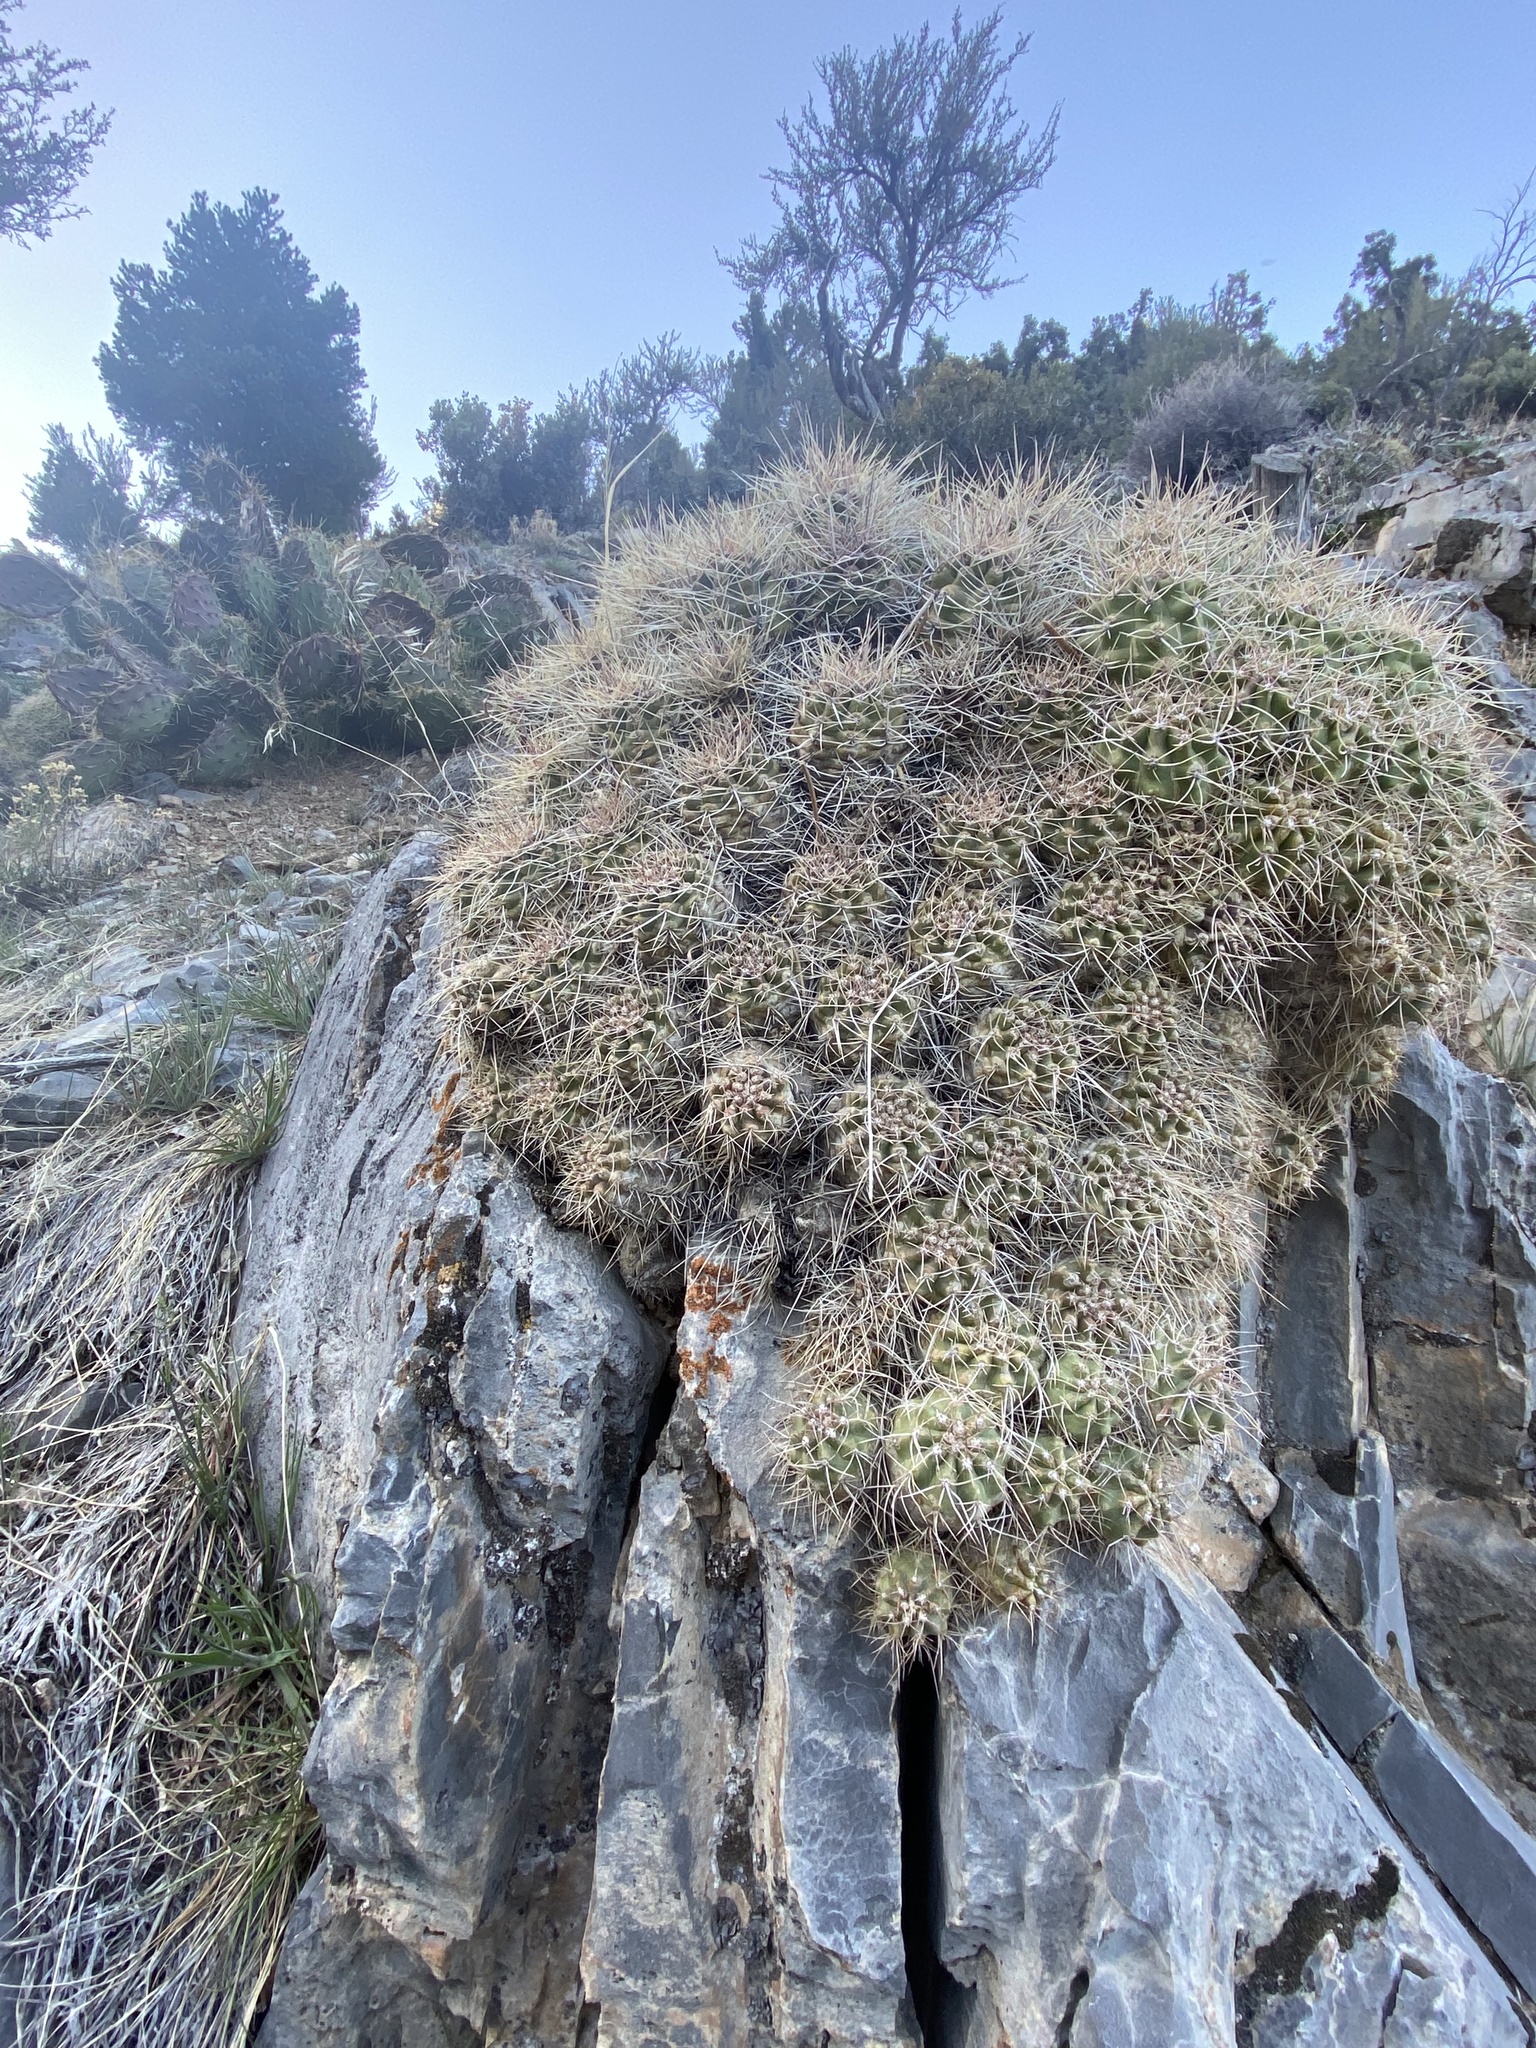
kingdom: Plantae
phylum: Tracheophyta
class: Magnoliopsida
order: Caryophyllales
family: Cactaceae
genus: Echinocereus
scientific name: Echinocereus triglochidiatus
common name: Claretcup hedgehog
